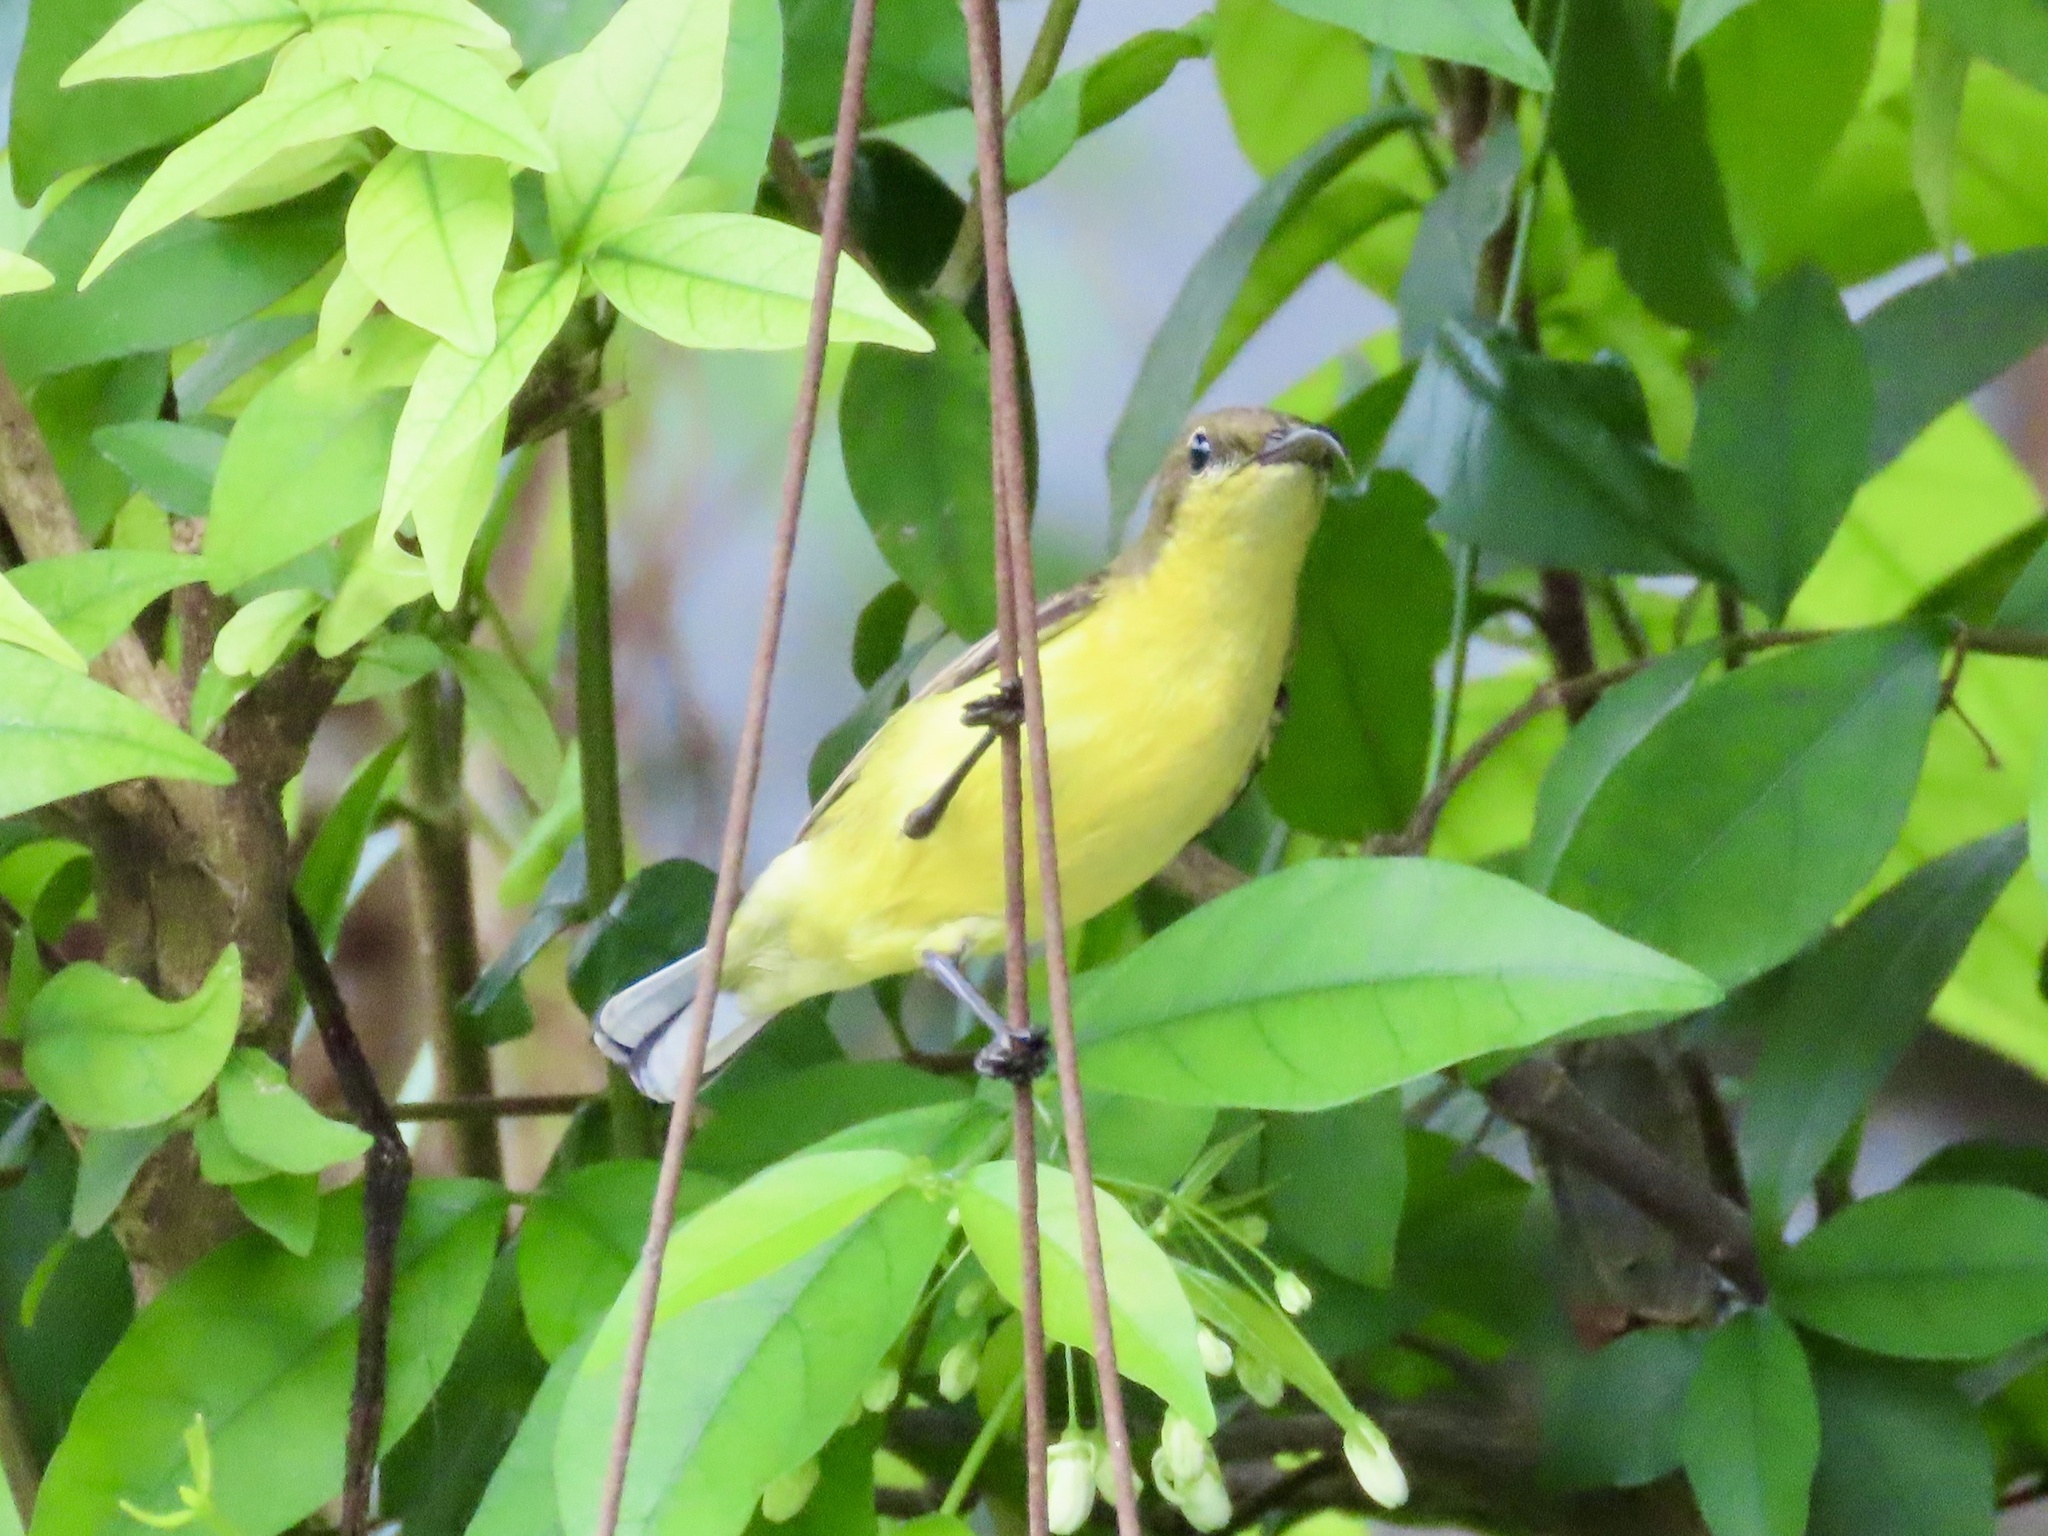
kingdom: Animalia
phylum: Chordata
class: Aves
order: Passeriformes
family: Nectariniidae
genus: Cinnyris
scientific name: Cinnyris
